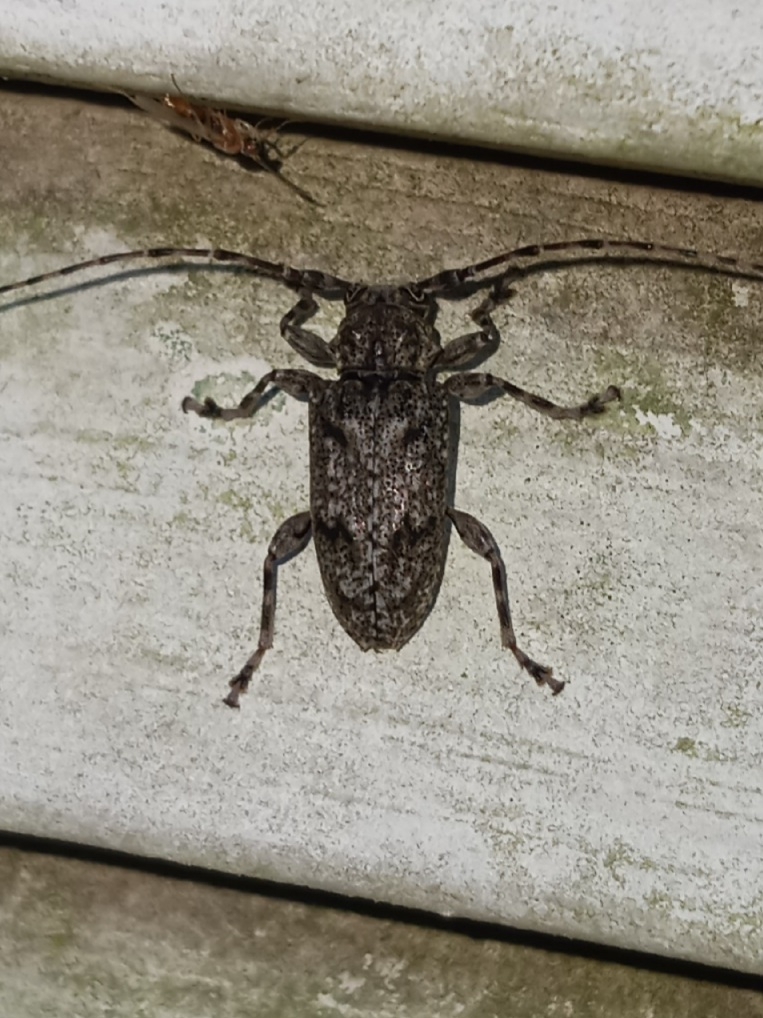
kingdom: Animalia
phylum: Arthropoda
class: Insecta
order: Coleoptera
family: Cerambycidae
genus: Aegomorphus
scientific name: Aegomorphus modestus
